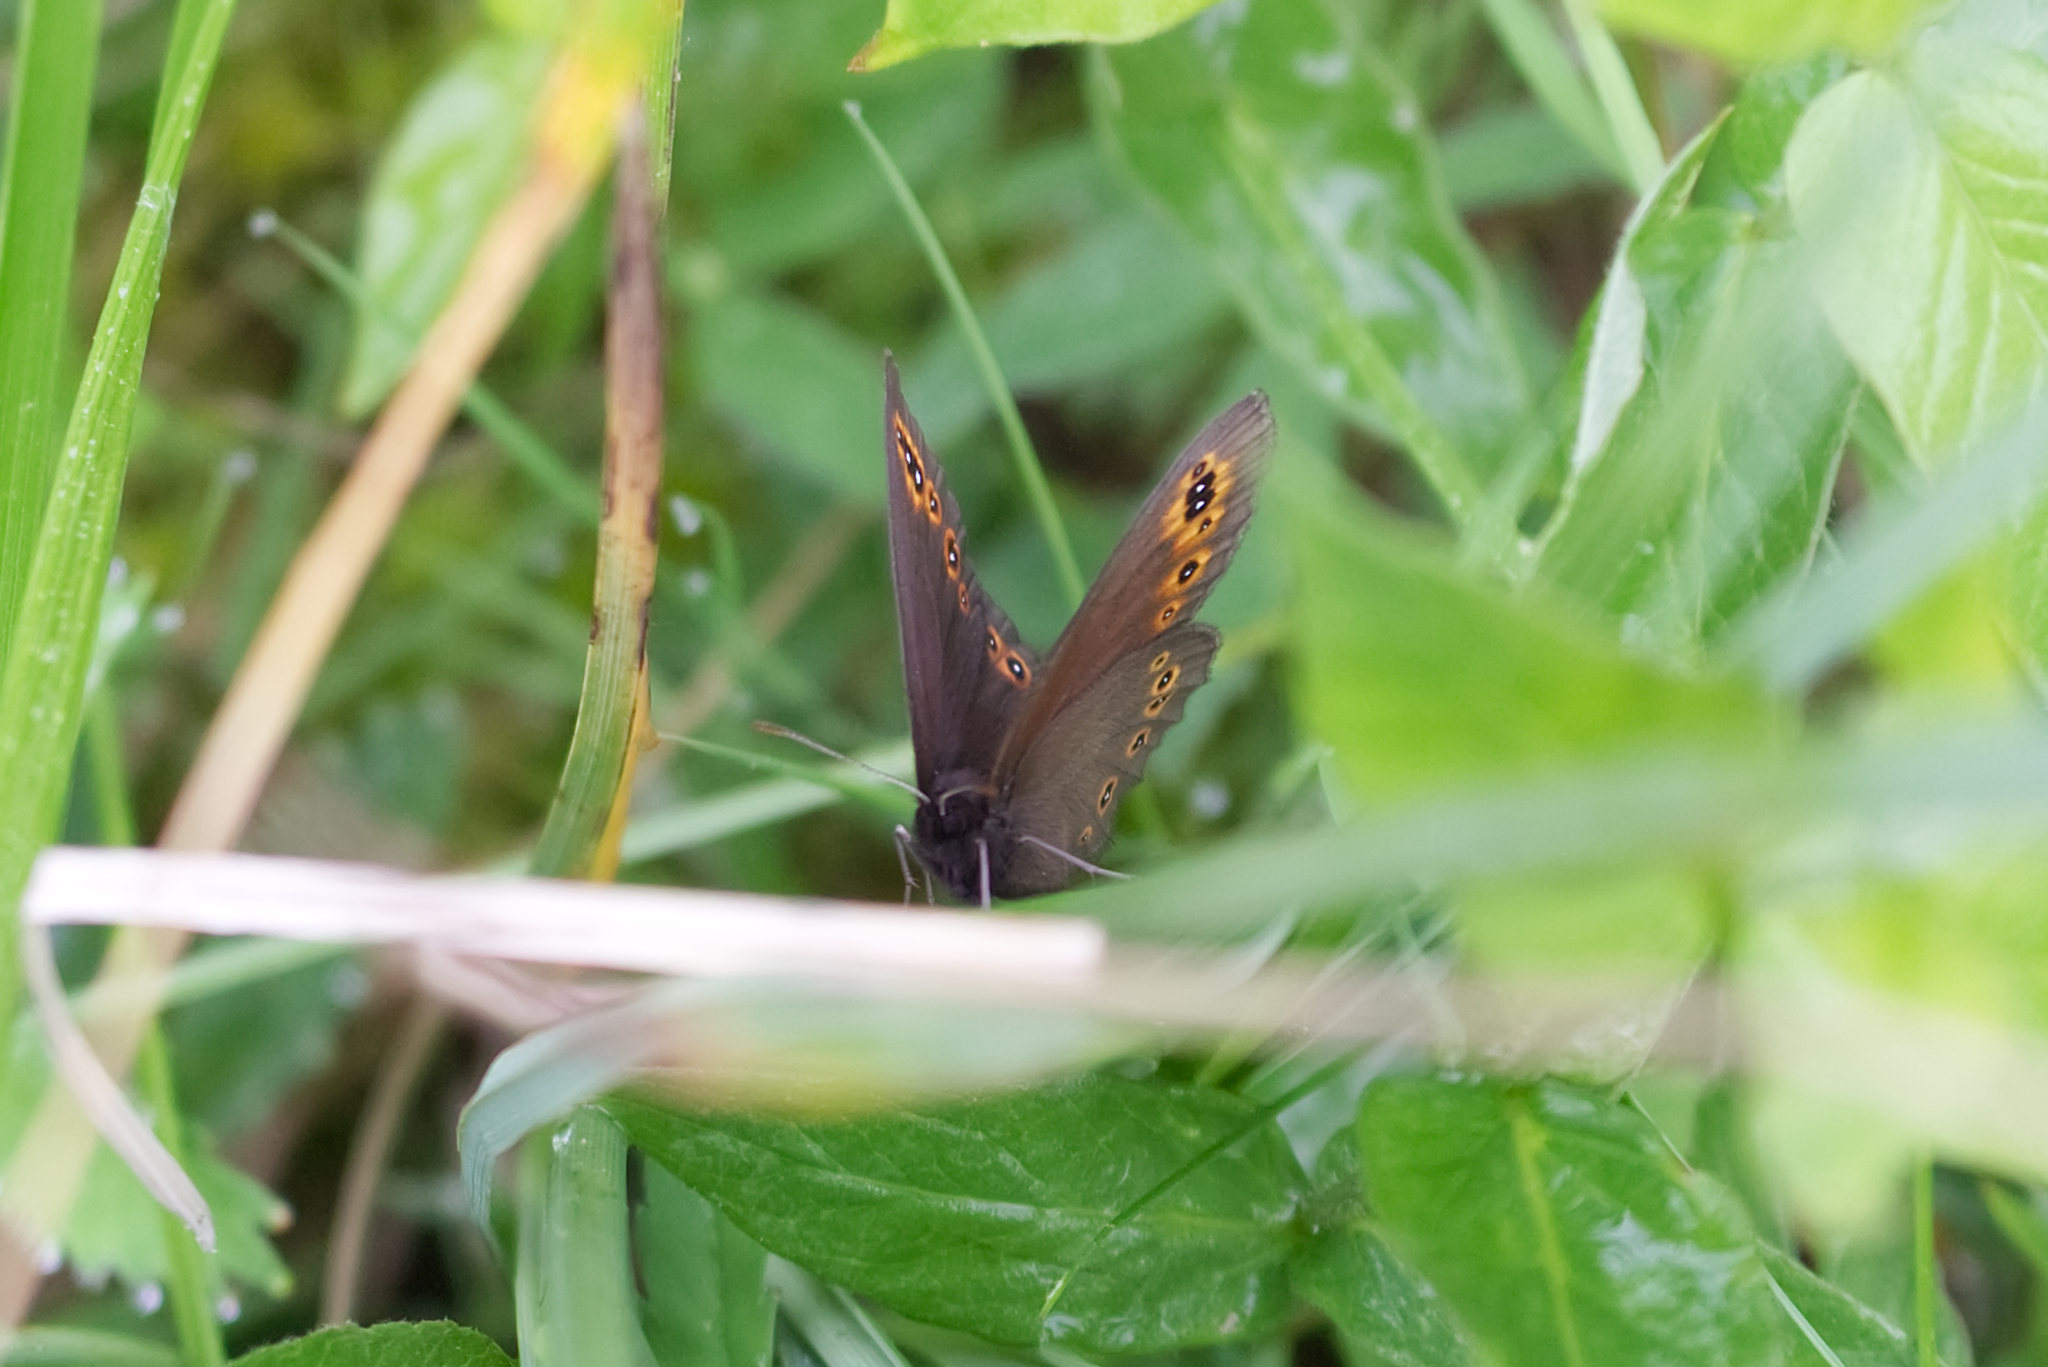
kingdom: Animalia
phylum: Arthropoda
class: Insecta
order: Lepidoptera
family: Nymphalidae
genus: Erebia
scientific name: Erebia medusa
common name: Woodland ringlet
